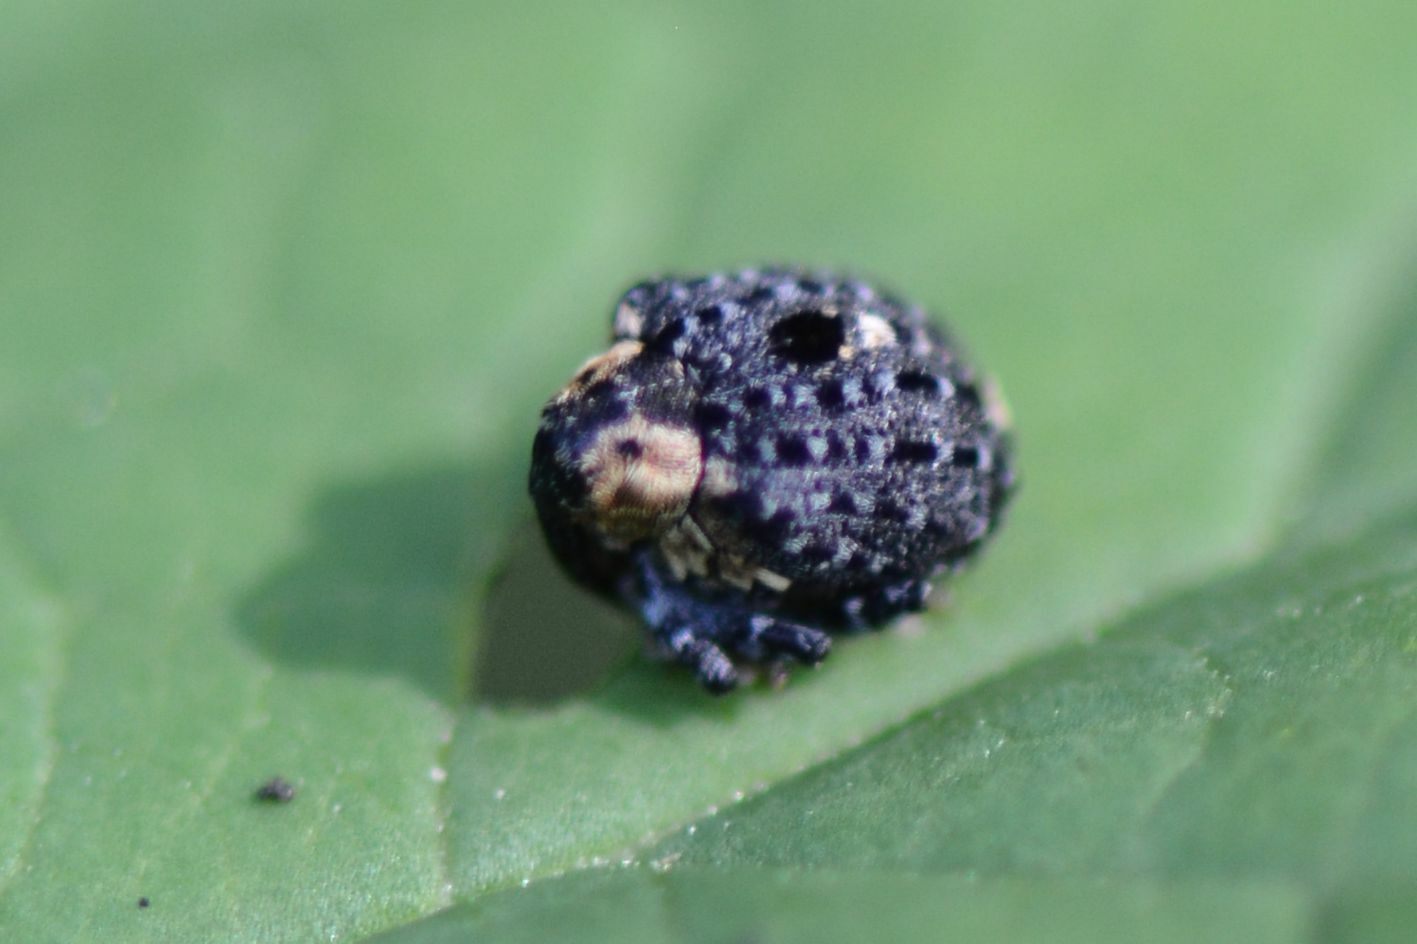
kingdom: Animalia
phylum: Arthropoda
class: Insecta
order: Coleoptera
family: Curculionidae
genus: Cionus
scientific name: Cionus tuberculosus
